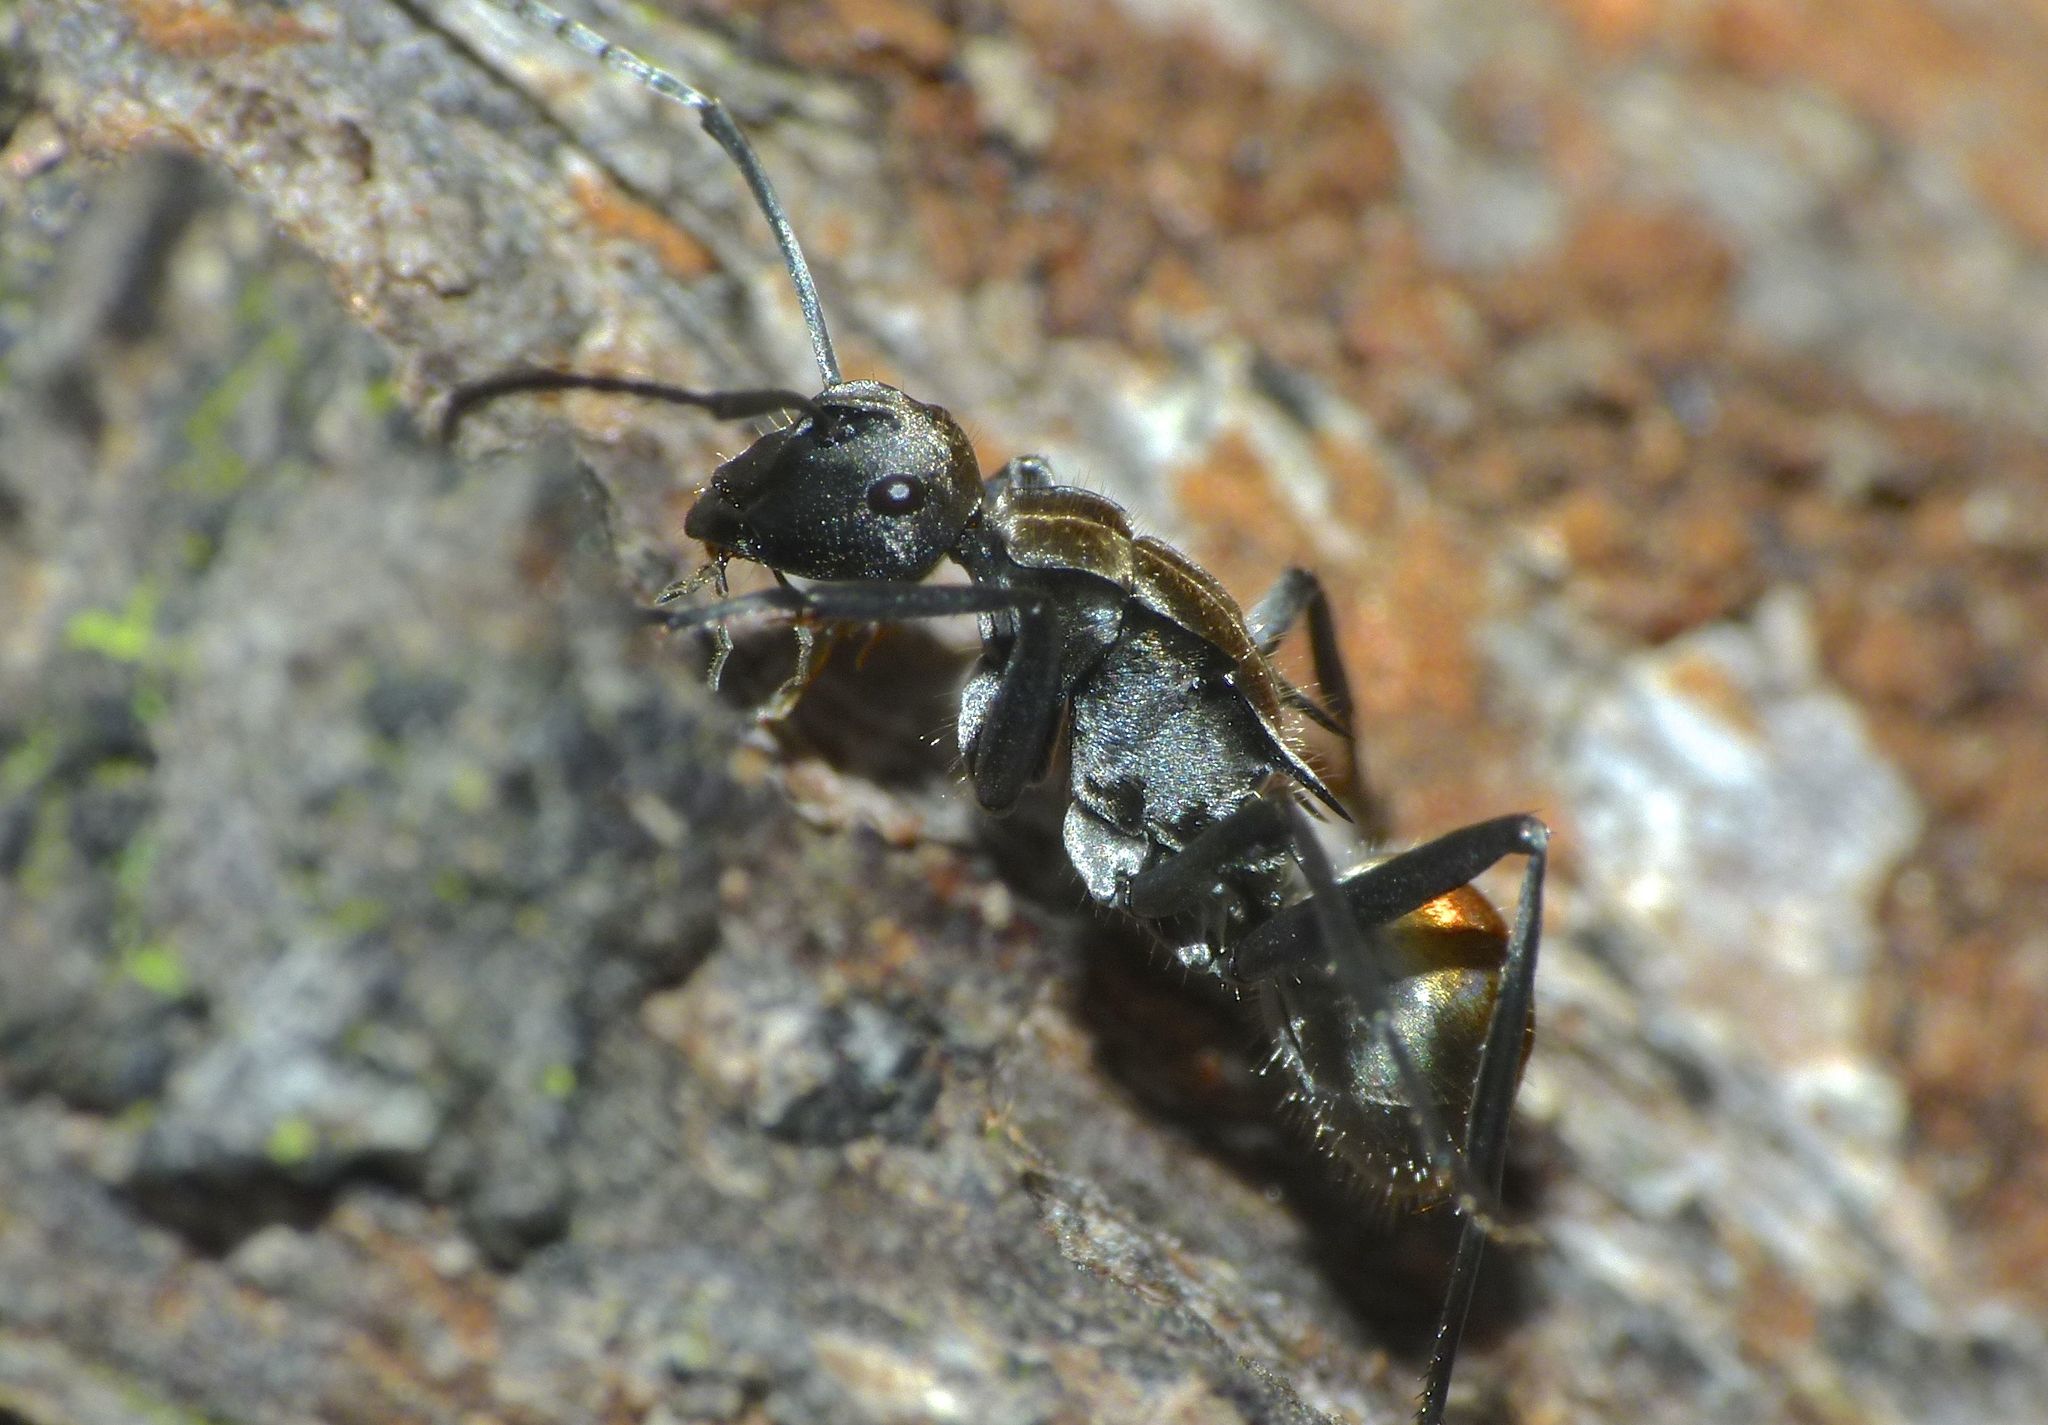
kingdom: Animalia
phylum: Arthropoda
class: Insecta
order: Hymenoptera
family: Formicidae
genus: Polyrhachis
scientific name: Polyrhachis ammon
